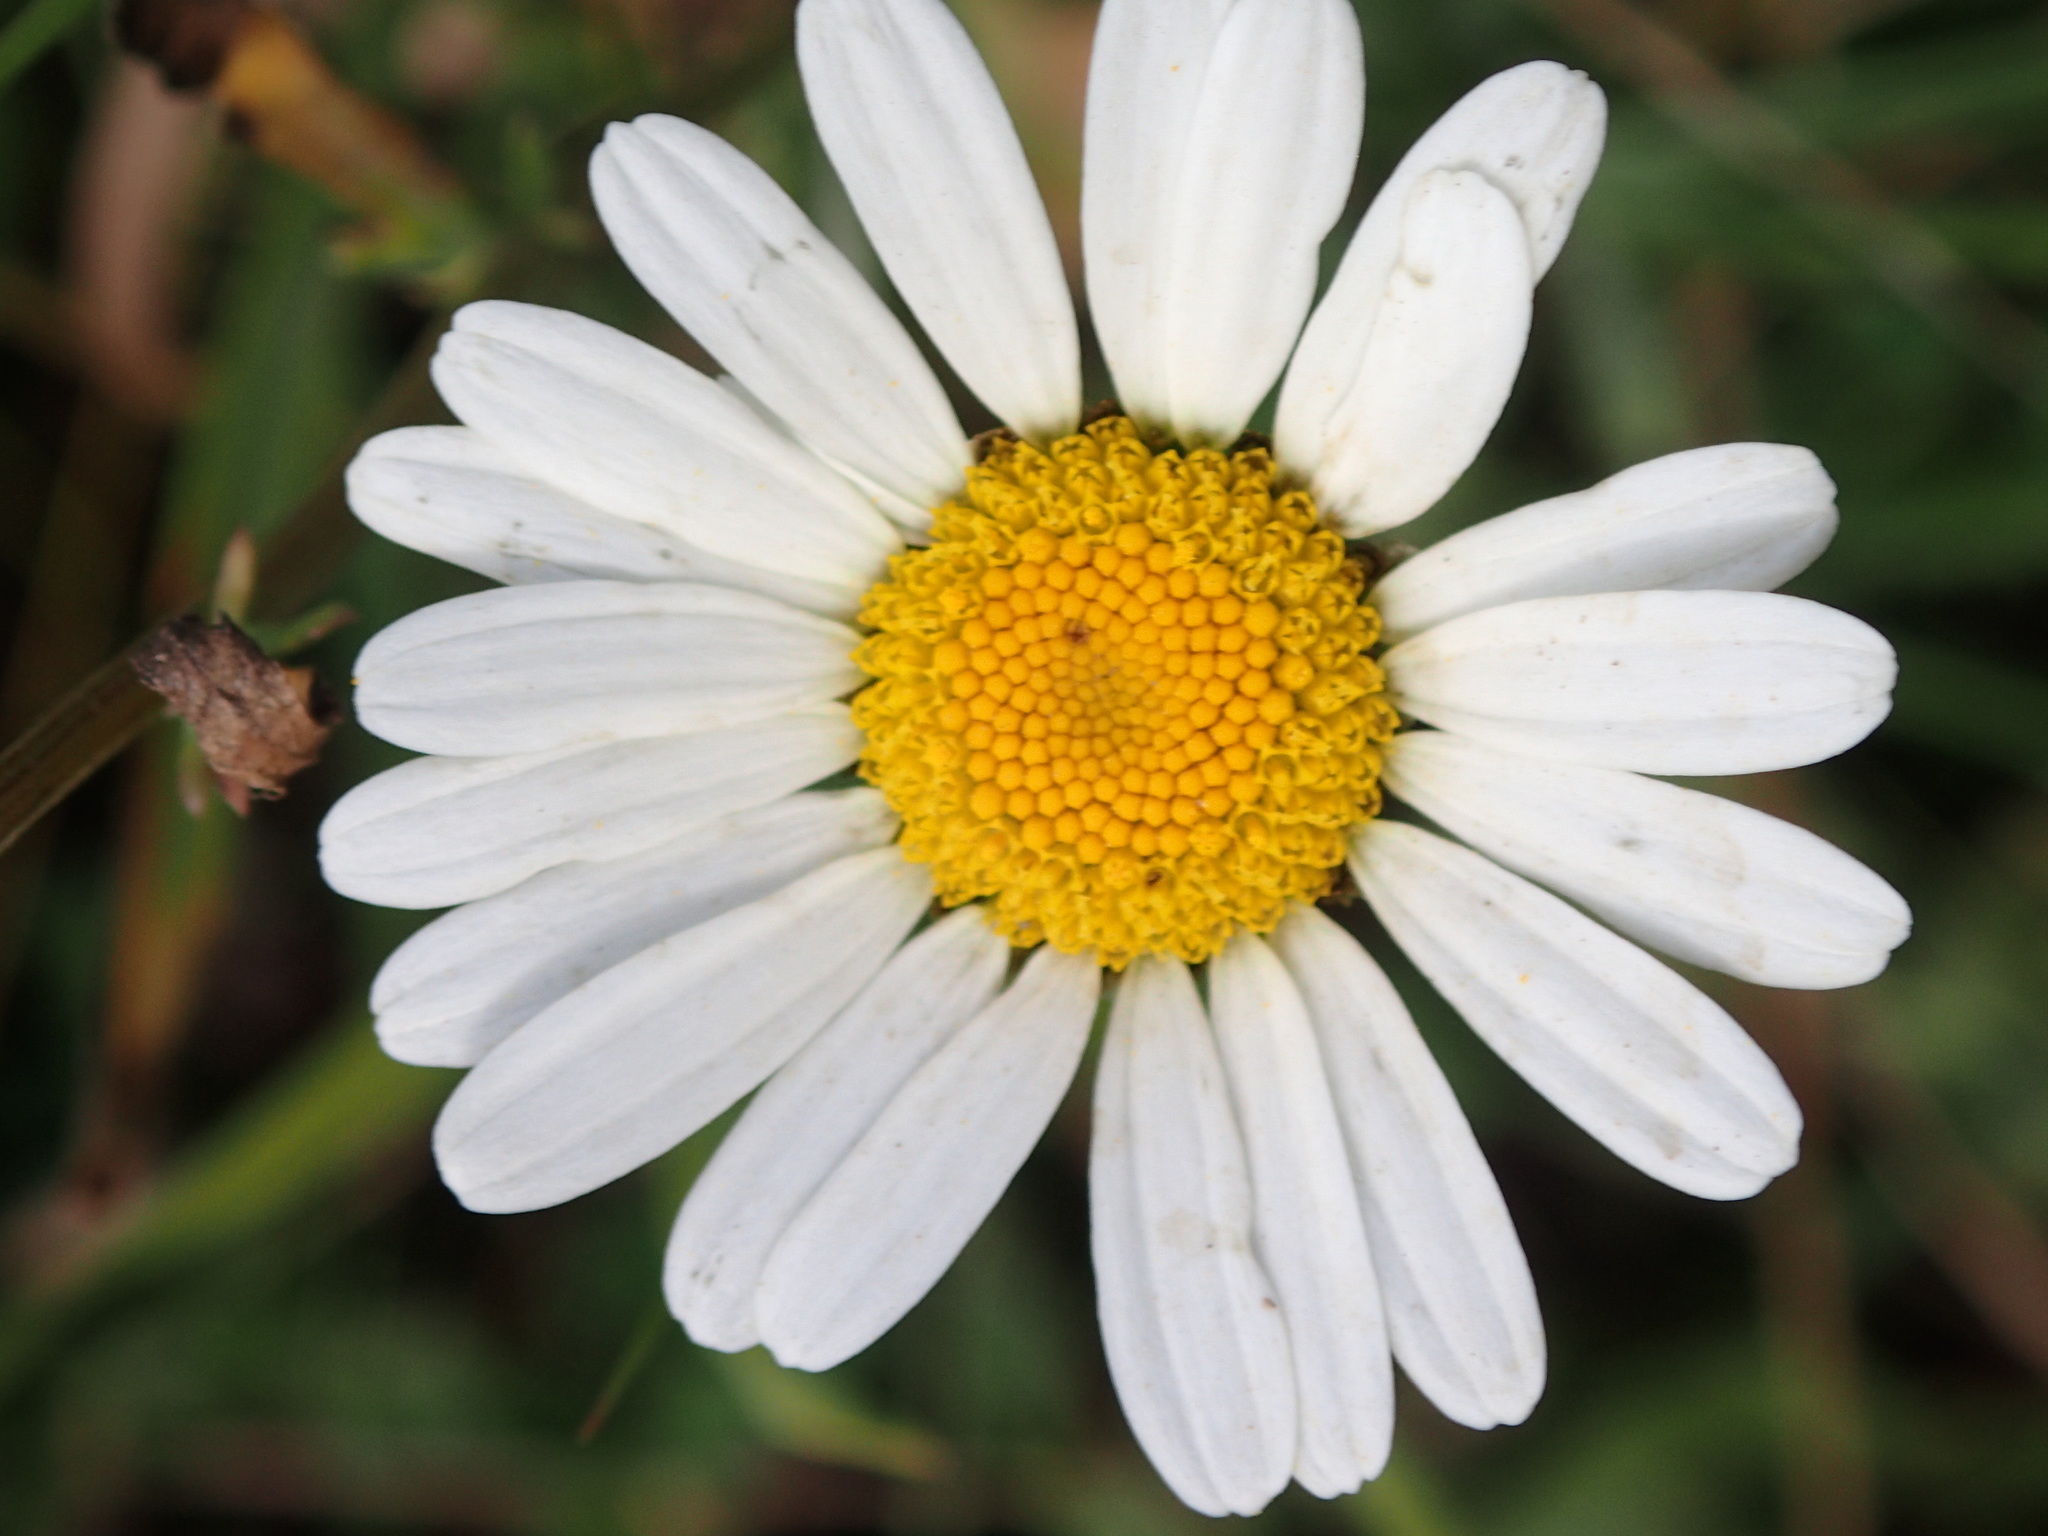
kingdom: Plantae
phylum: Tracheophyta
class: Magnoliopsida
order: Asterales
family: Asteraceae
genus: Leucanthemum
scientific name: Leucanthemum vulgare
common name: Oxeye daisy
